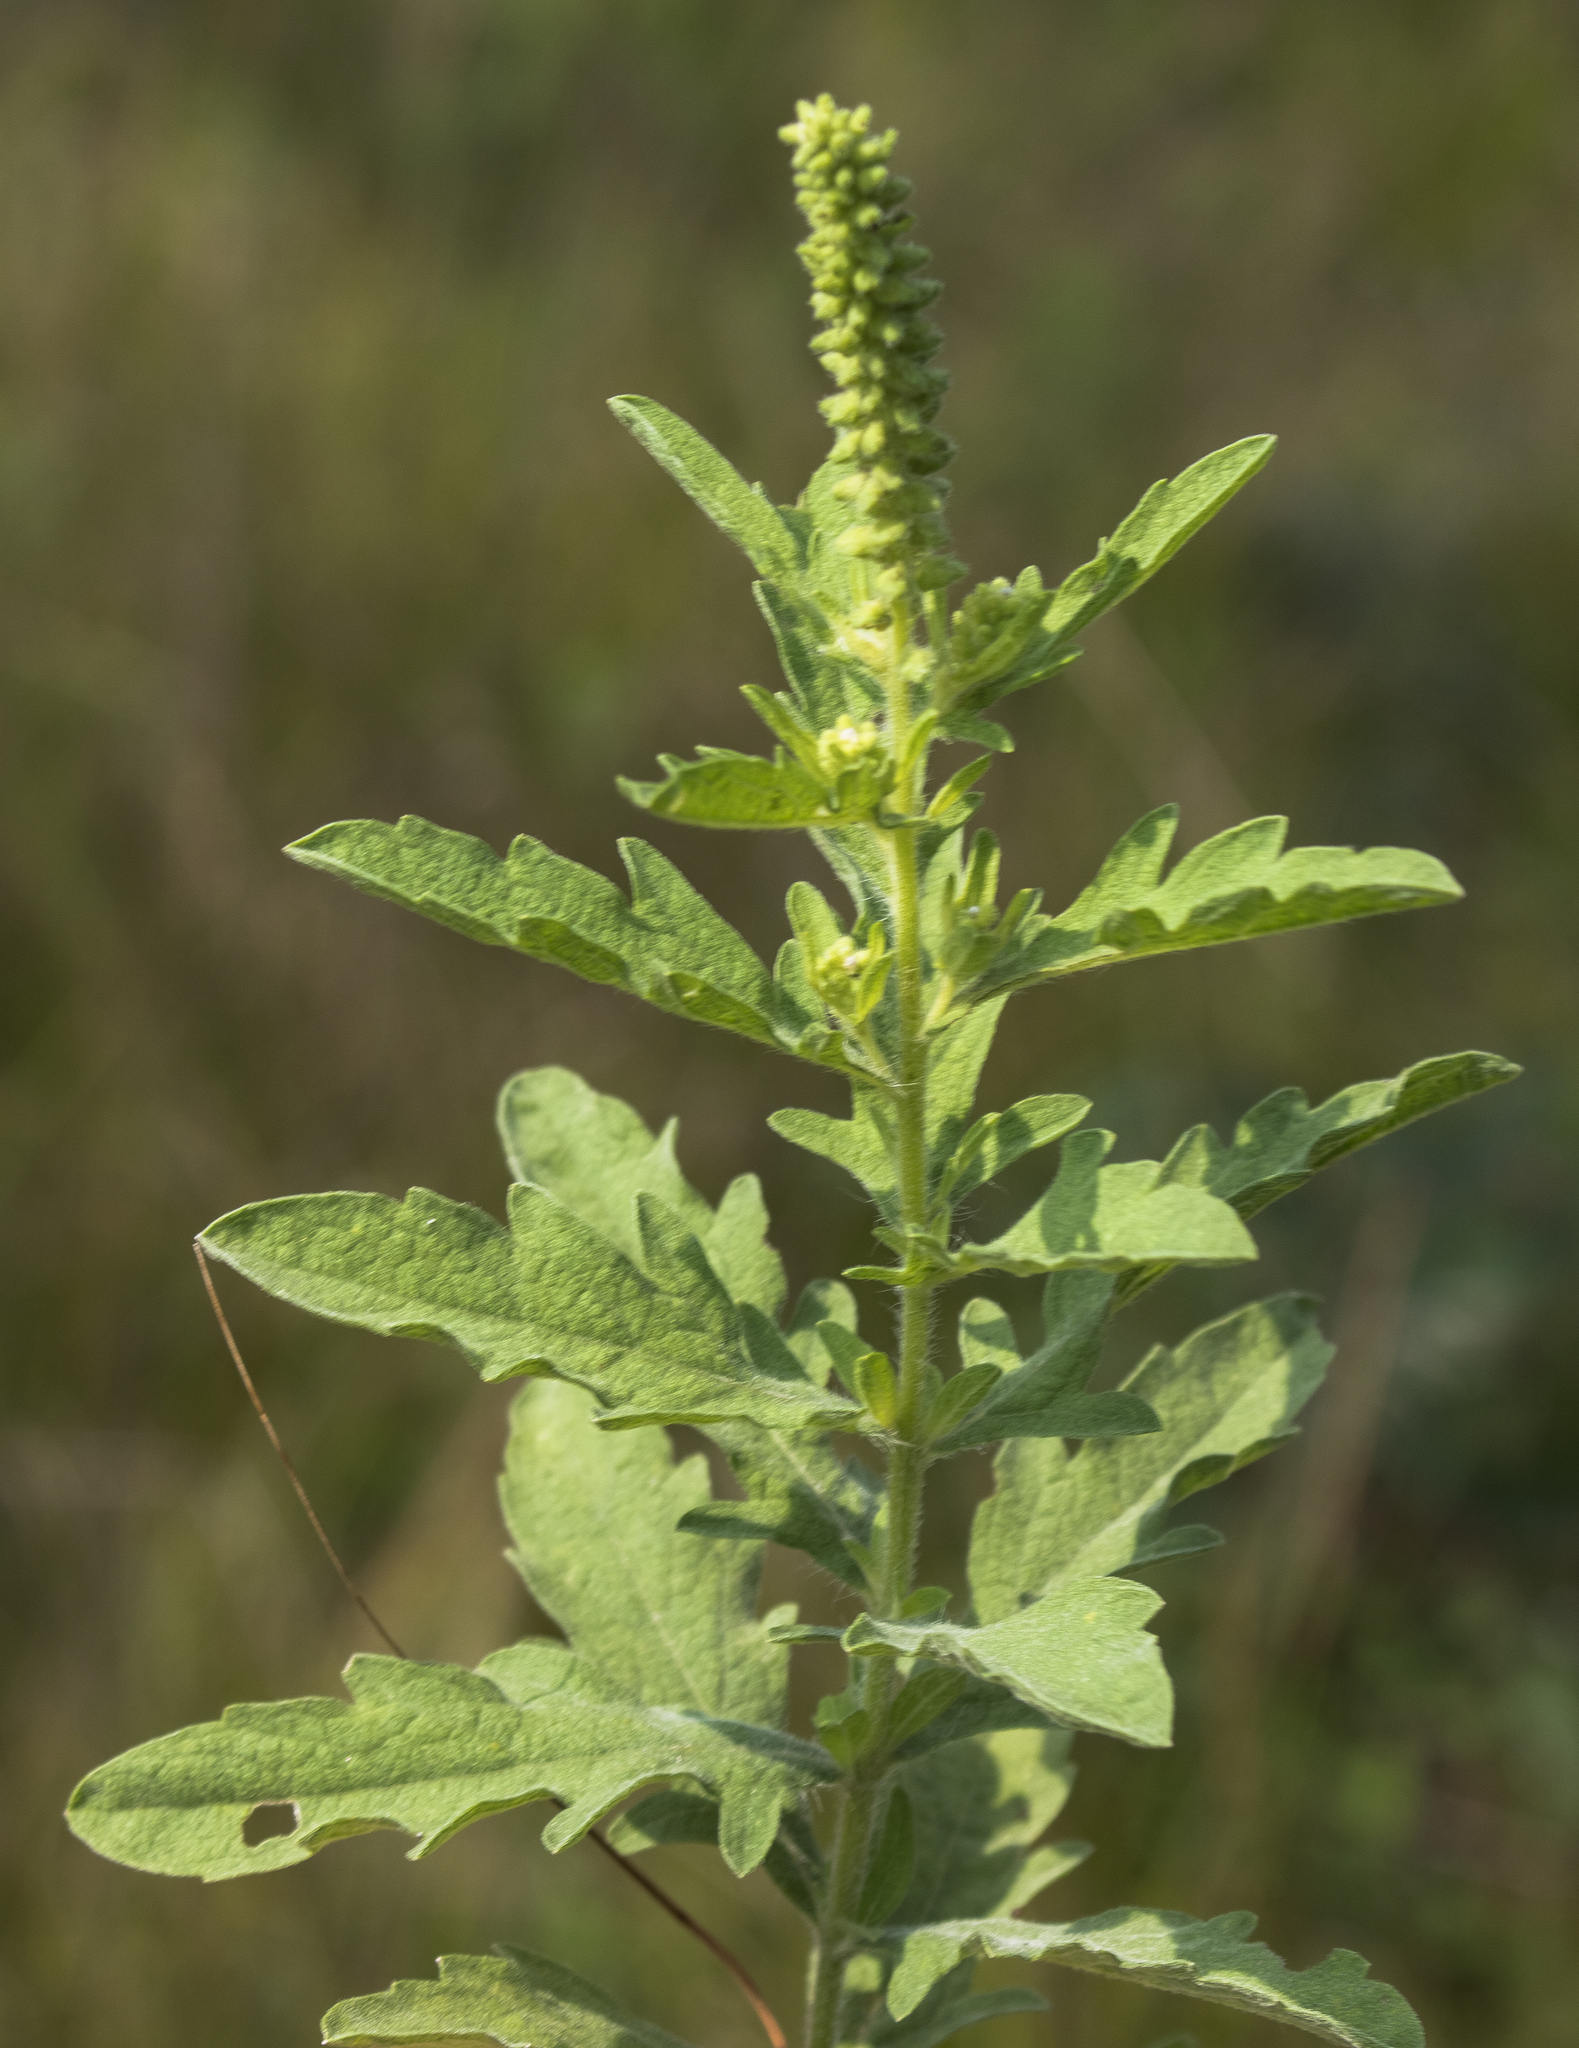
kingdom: Plantae
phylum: Tracheophyta
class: Magnoliopsida
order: Asterales
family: Asteraceae
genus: Ambrosia
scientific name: Ambrosia psilostachya
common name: Perennial ragweed
